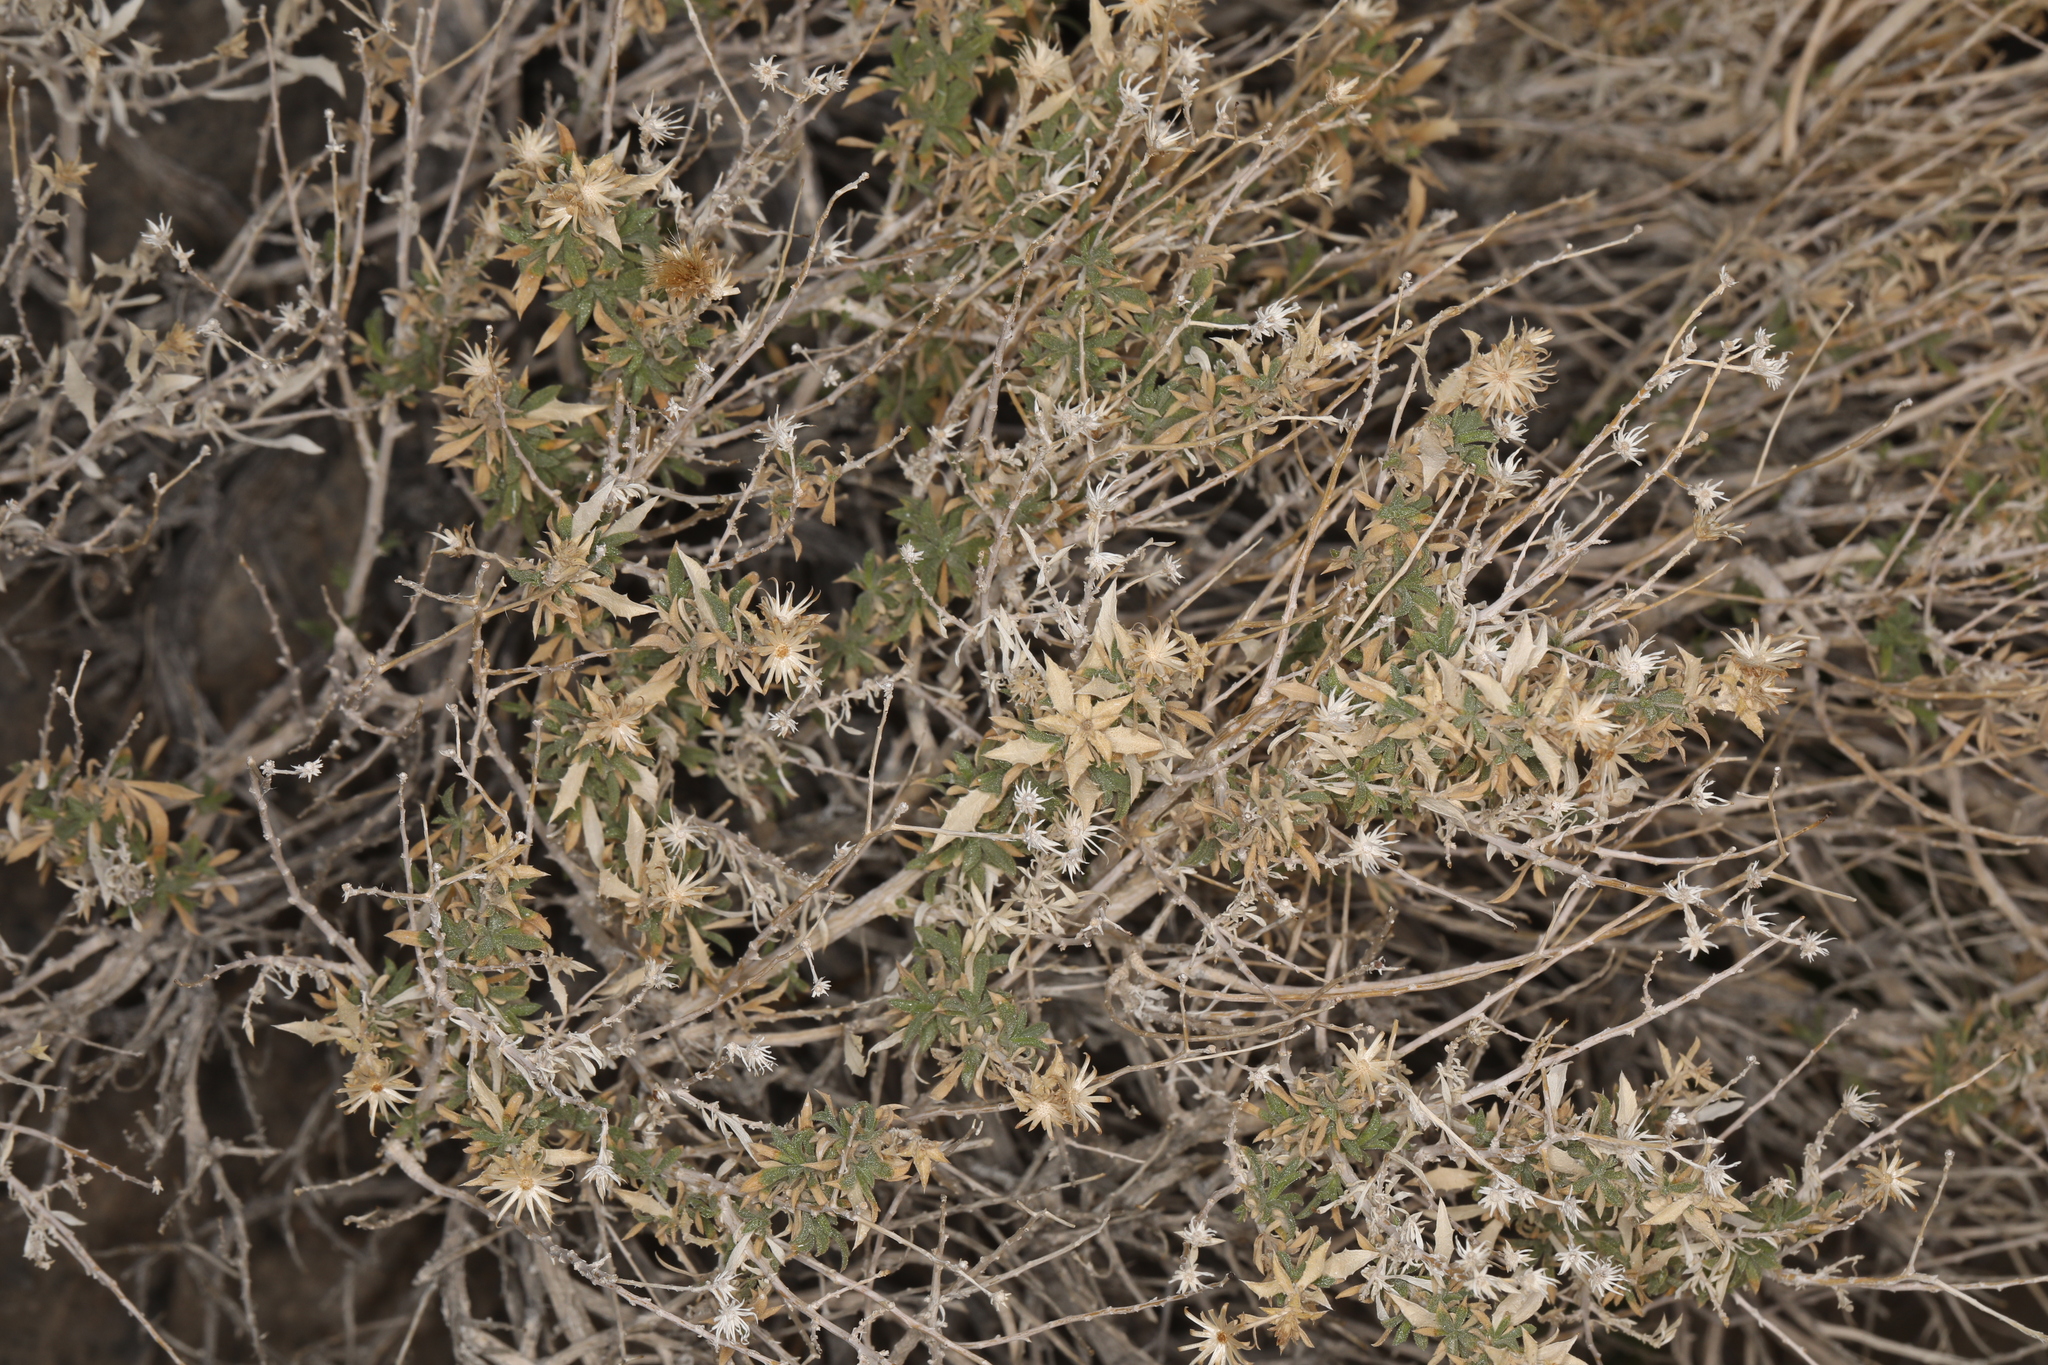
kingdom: Plantae
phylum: Tracheophyta
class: Magnoliopsida
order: Asterales
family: Asteraceae
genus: Adiaphila
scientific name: Adiaphila brickellioides
